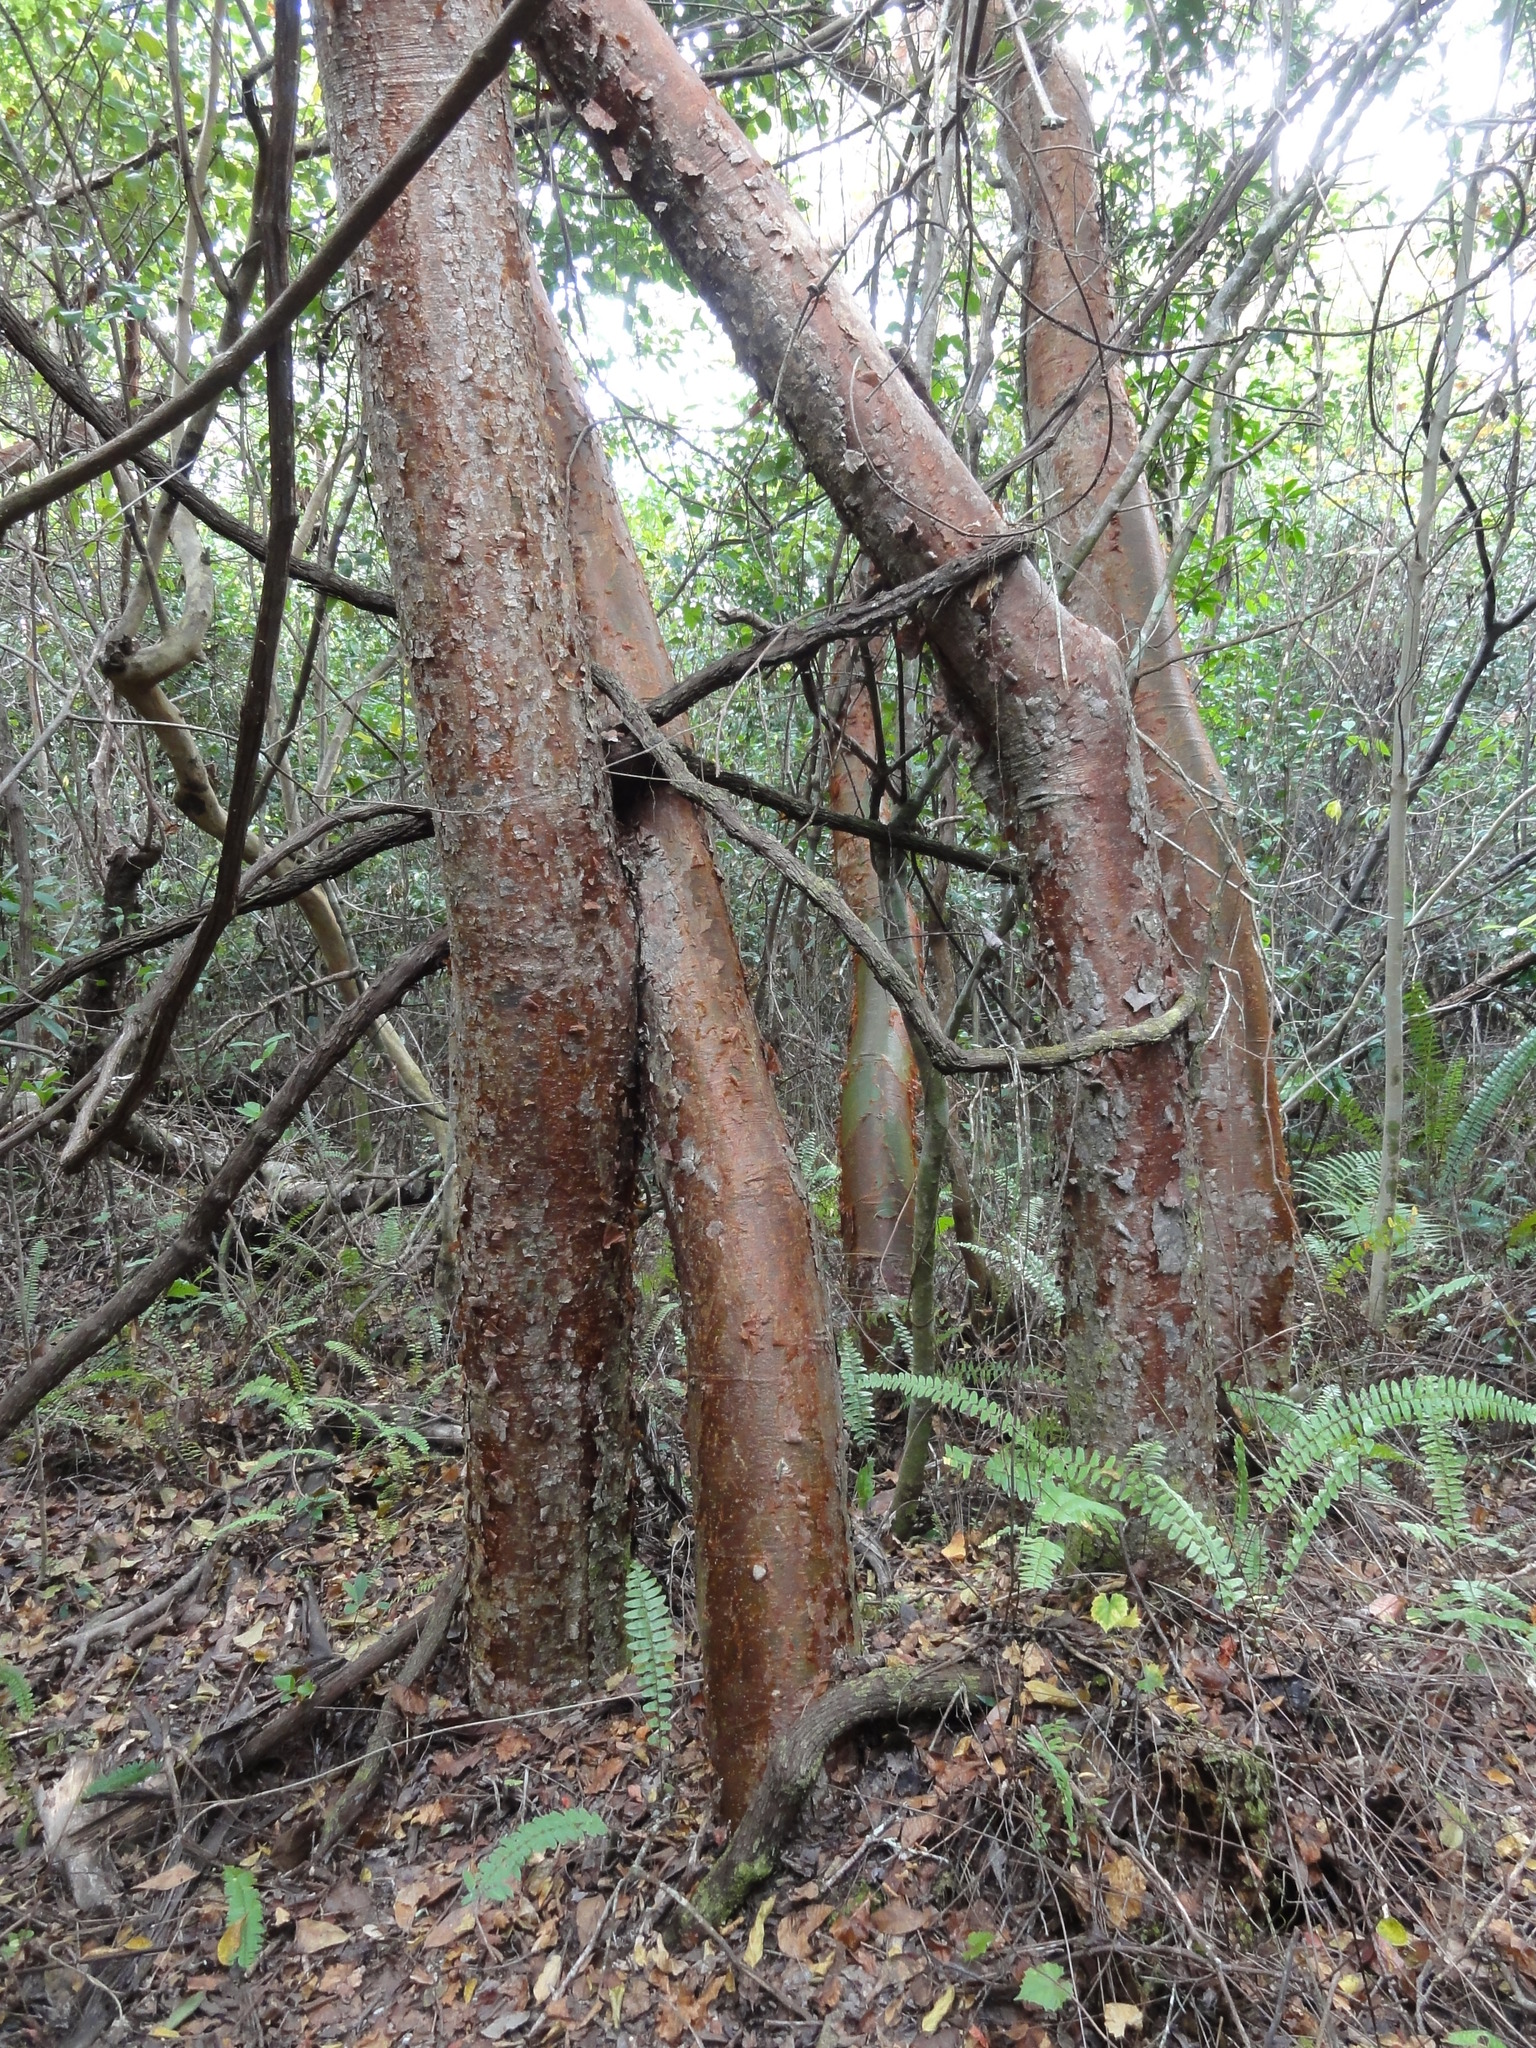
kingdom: Plantae
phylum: Tracheophyta
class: Magnoliopsida
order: Sapindales
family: Burseraceae
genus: Bursera
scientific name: Bursera simaruba
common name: Turpentine tree
